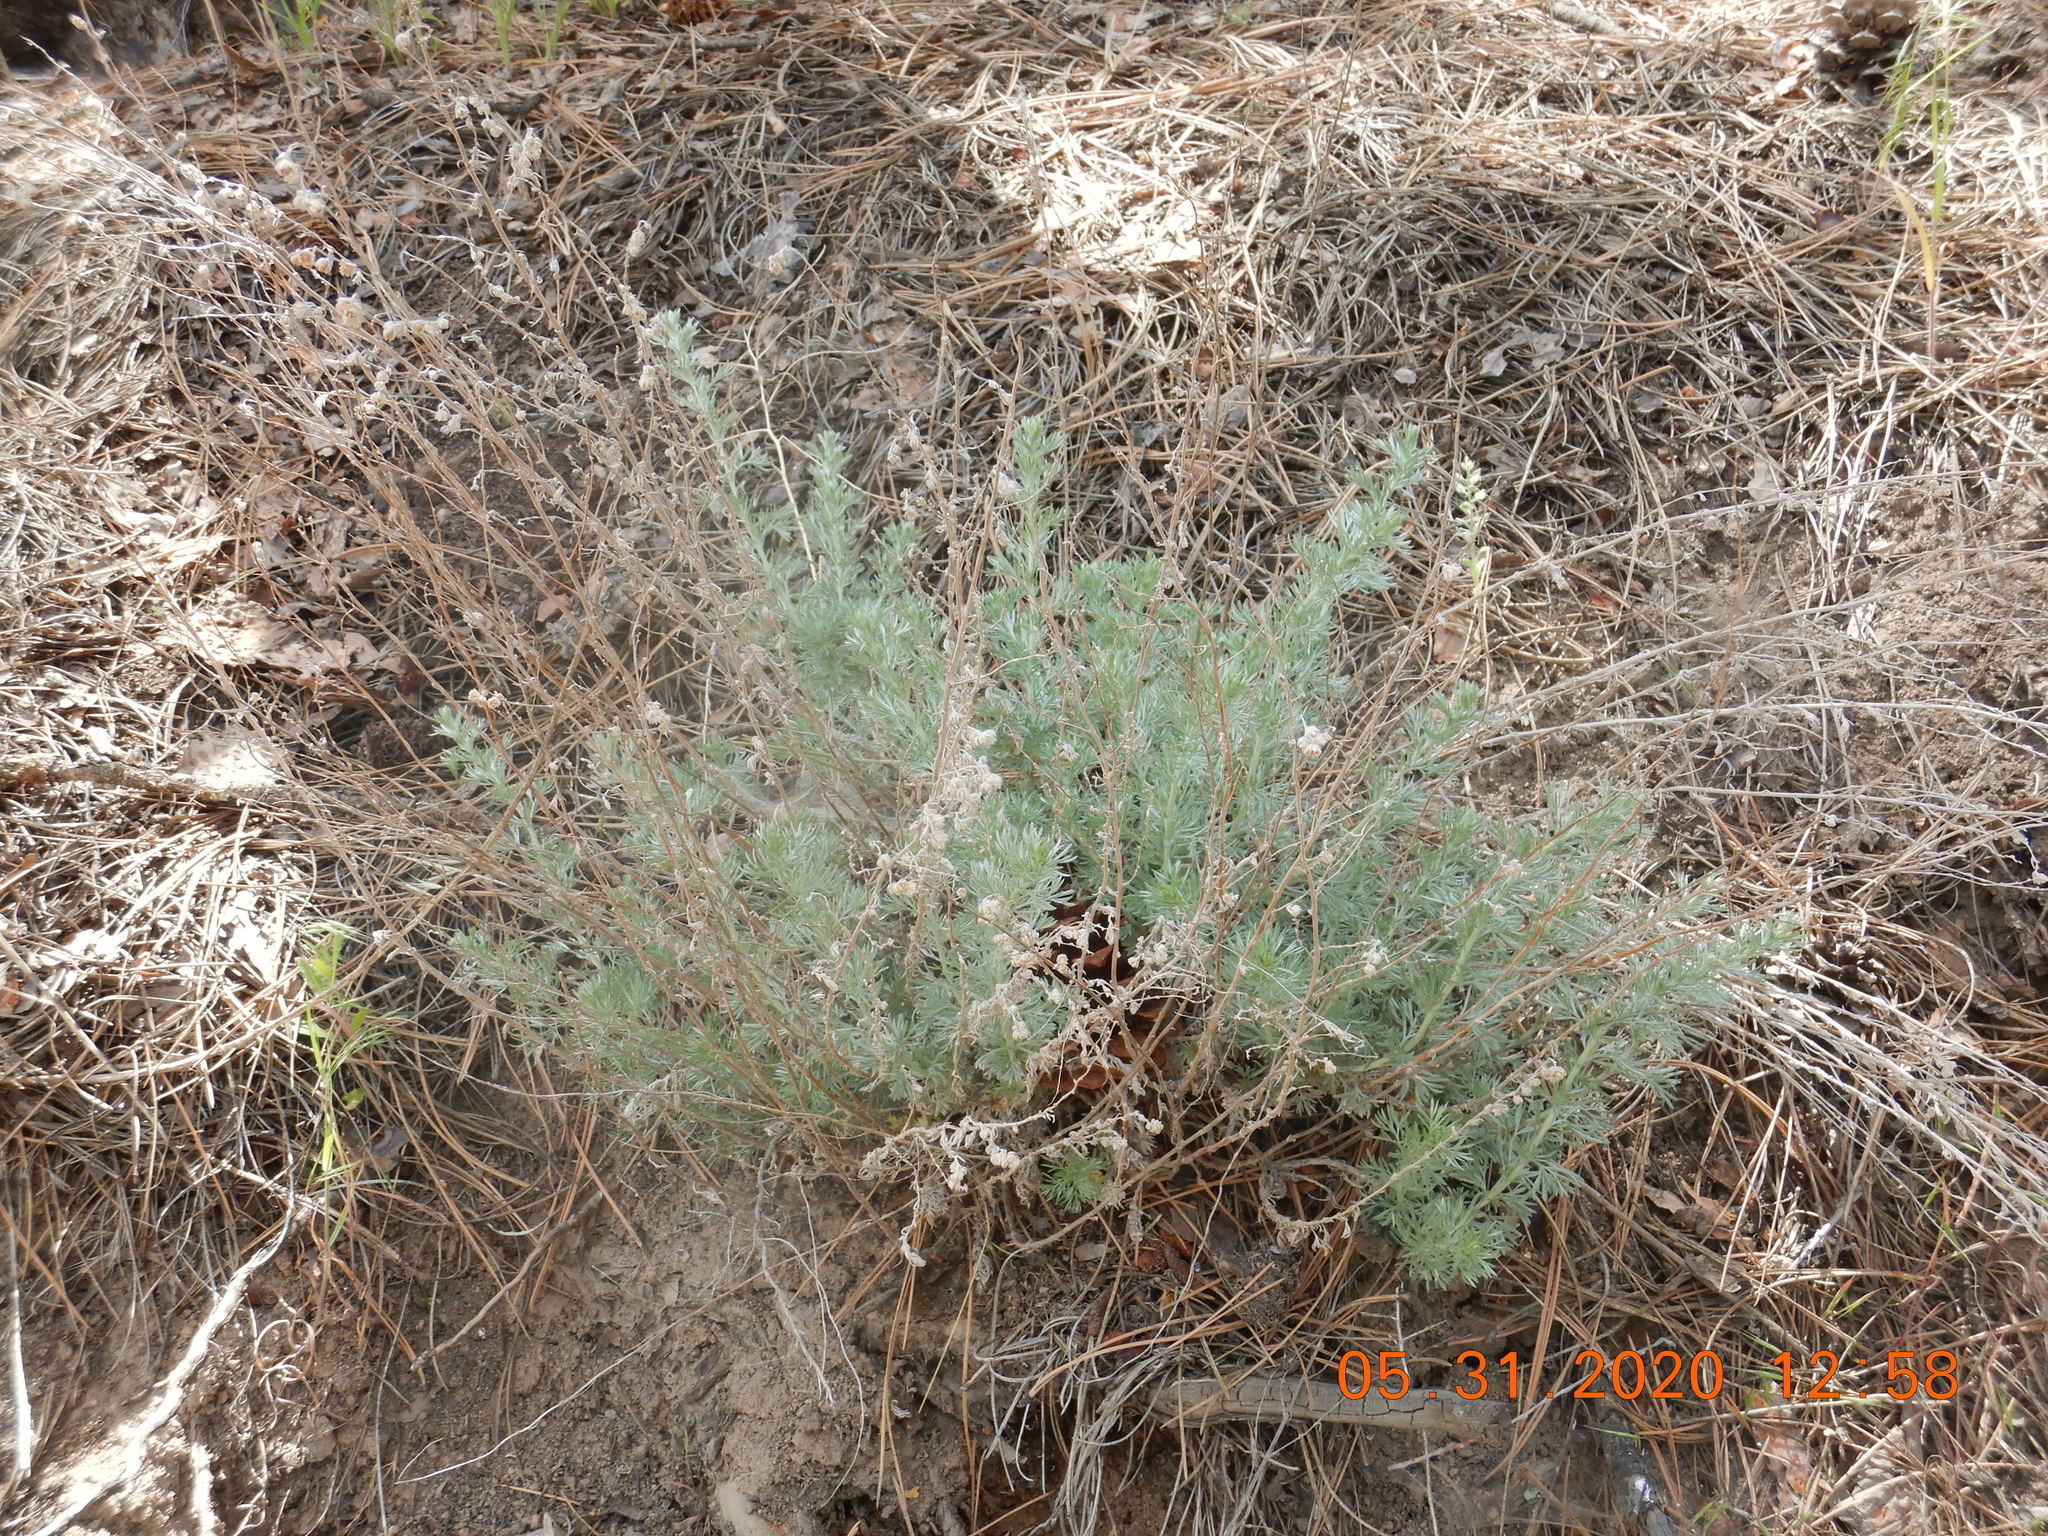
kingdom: Plantae
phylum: Tracheophyta
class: Magnoliopsida
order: Asterales
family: Asteraceae
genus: Artemisia
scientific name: Artemisia frigida
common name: Prairie sagewort
